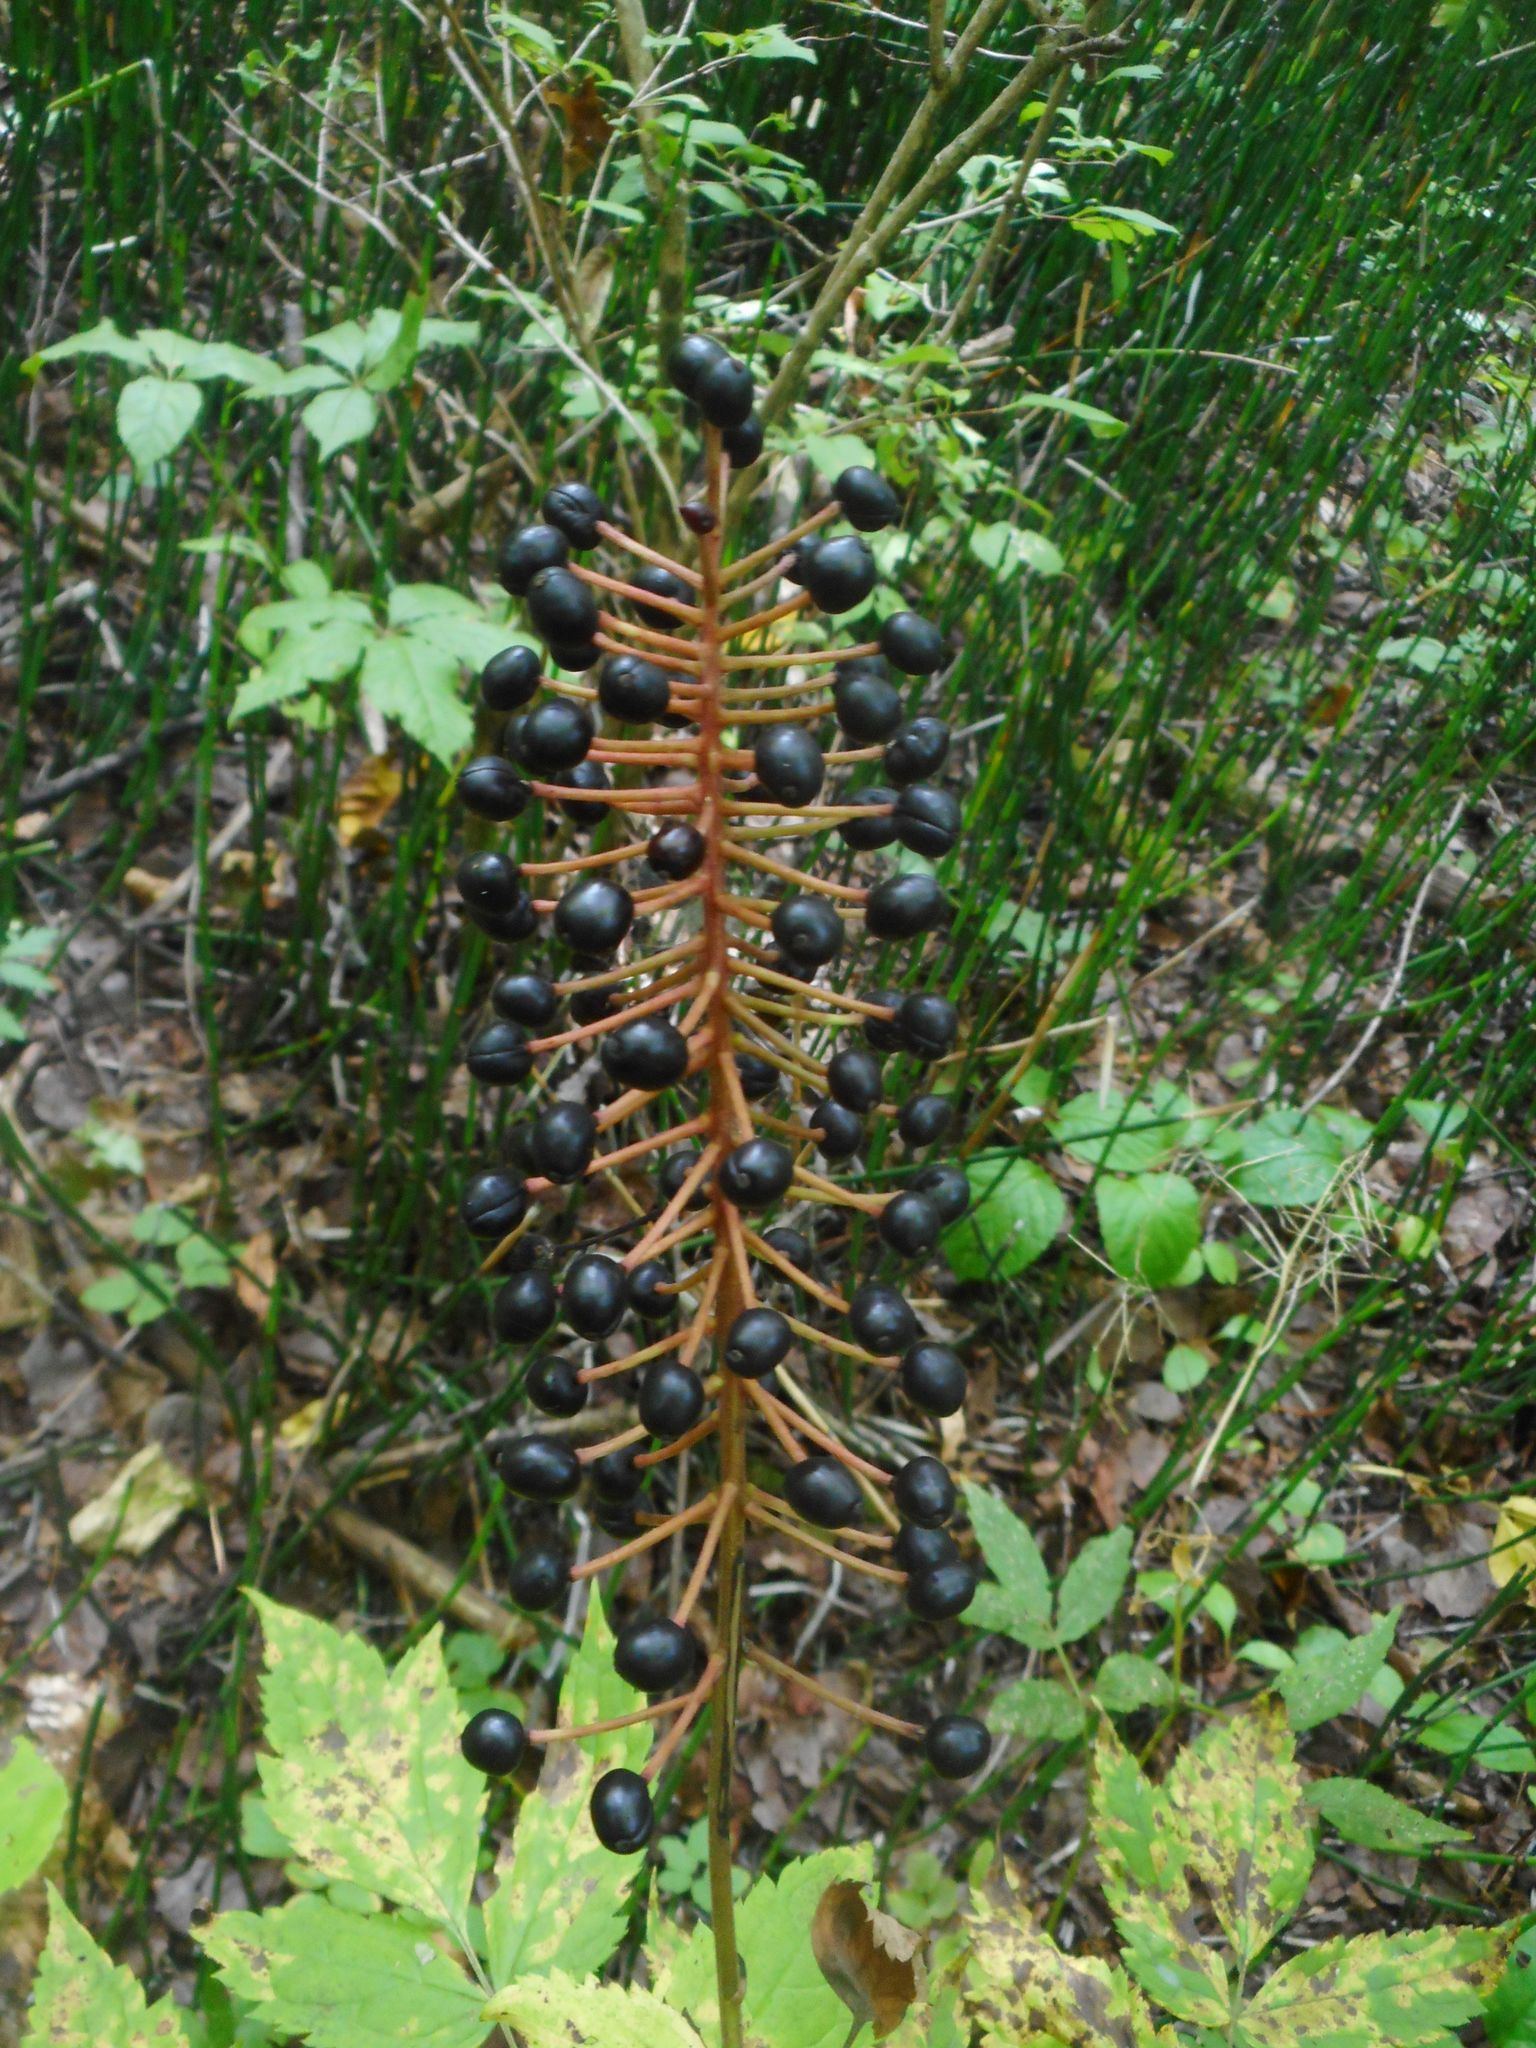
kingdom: Plantae
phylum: Tracheophyta
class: Magnoliopsida
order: Ranunculales
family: Ranunculaceae
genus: Actaea
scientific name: Actaea asiatica
